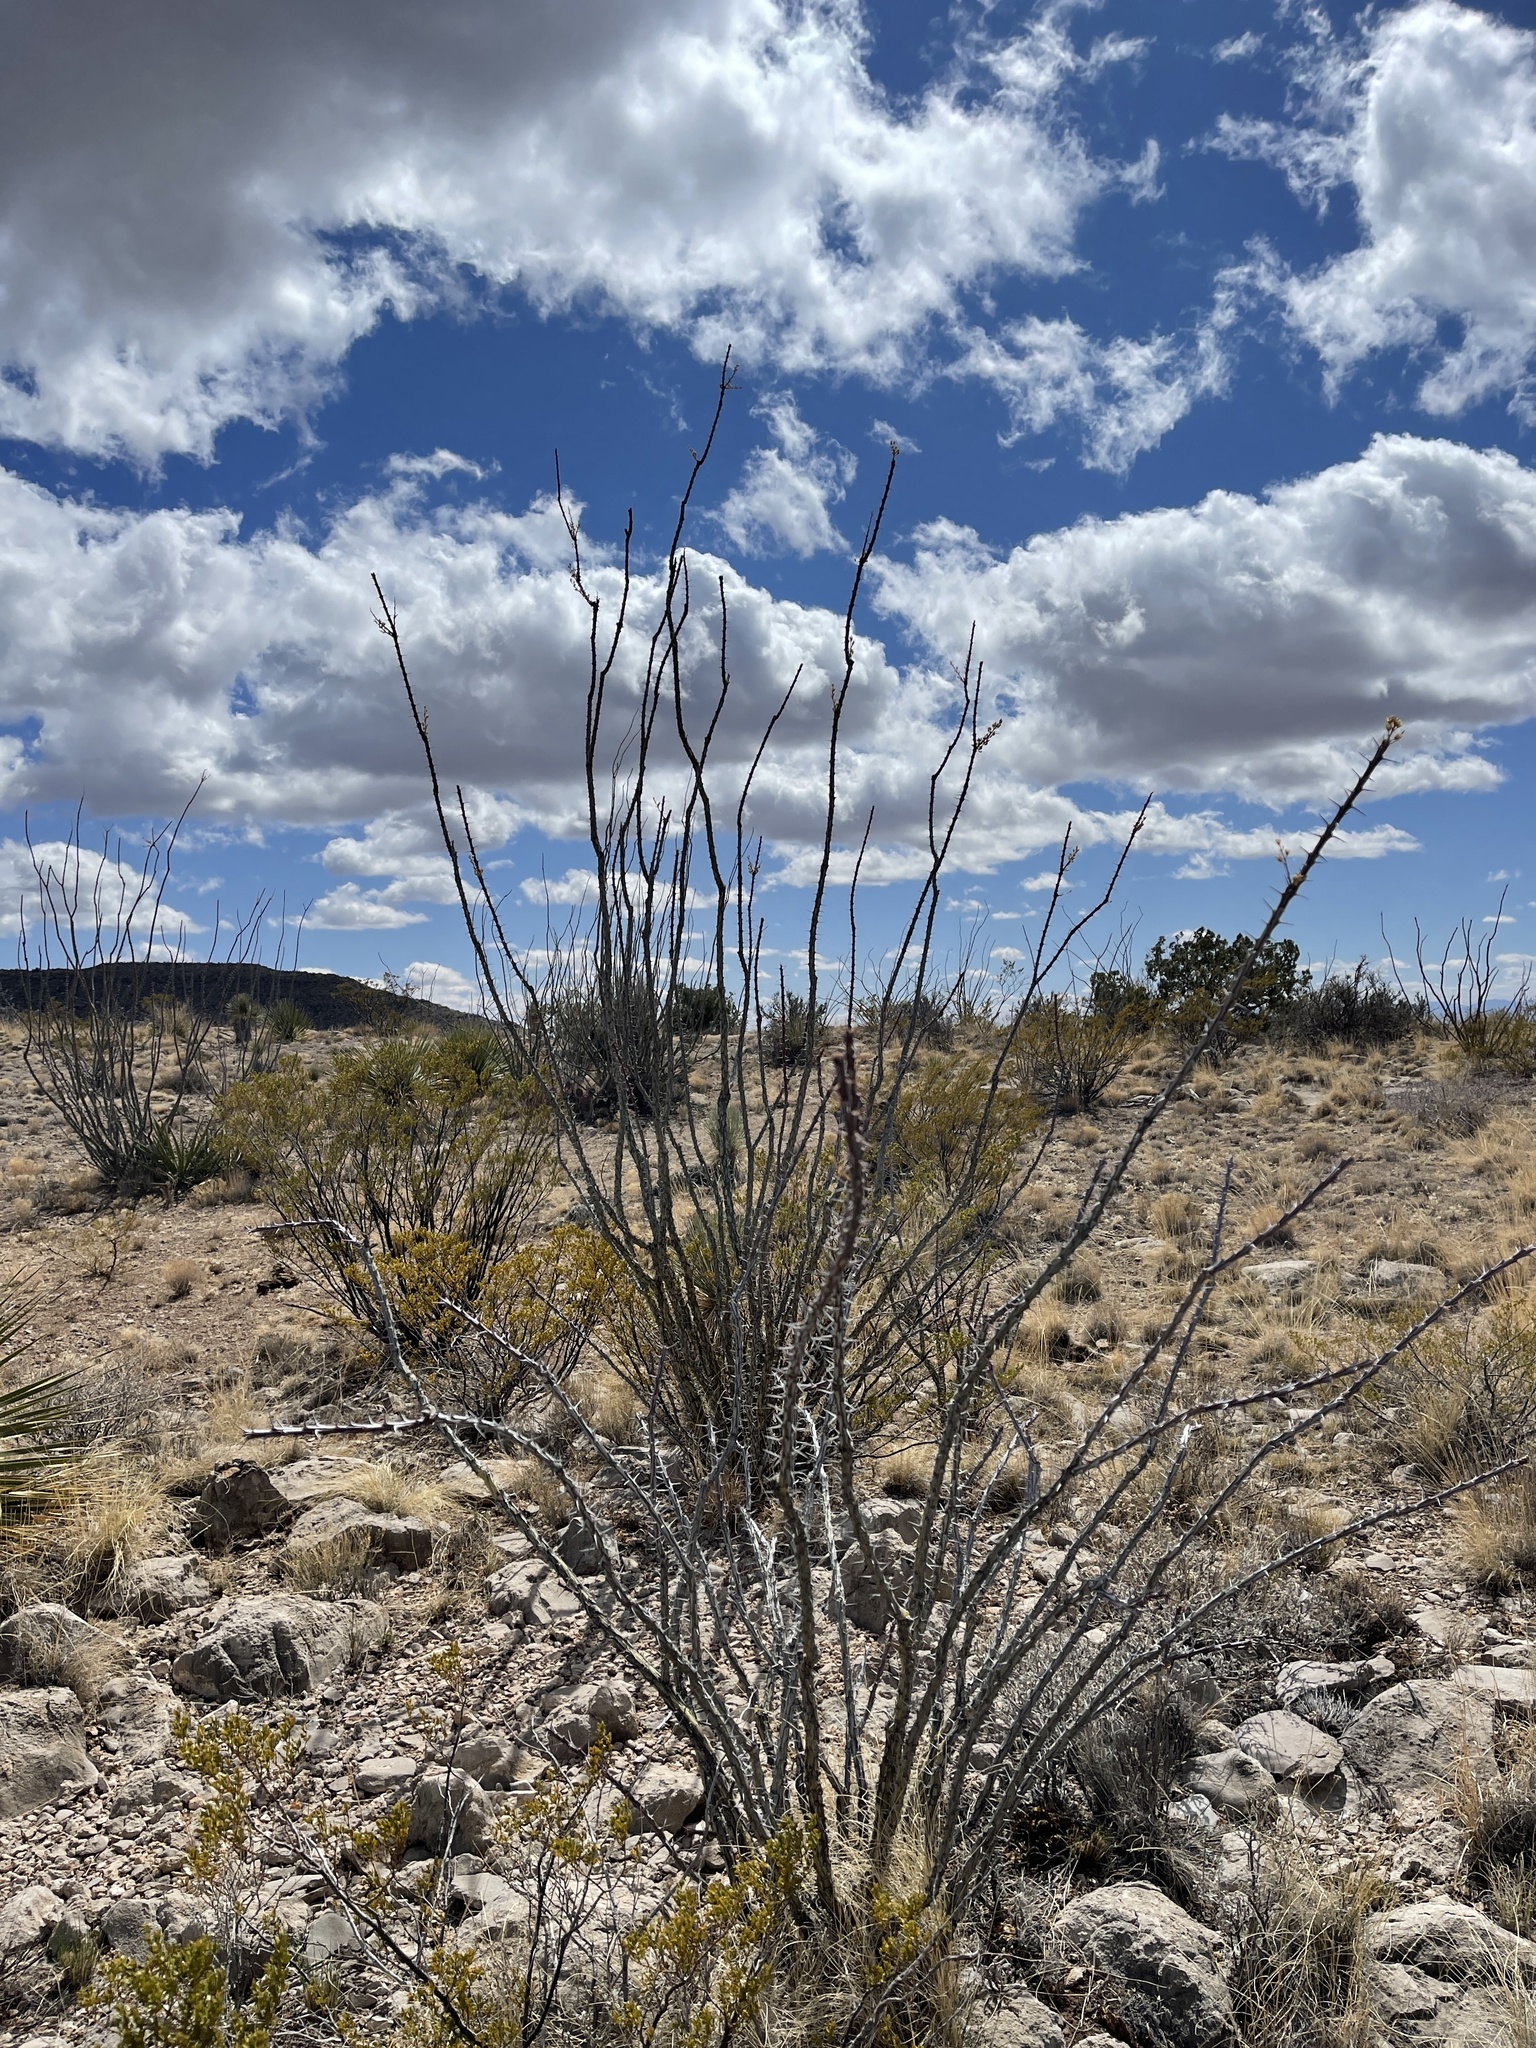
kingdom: Plantae
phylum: Tracheophyta
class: Magnoliopsida
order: Ericales
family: Fouquieriaceae
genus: Fouquieria
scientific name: Fouquieria splendens
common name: Vine-cactus
